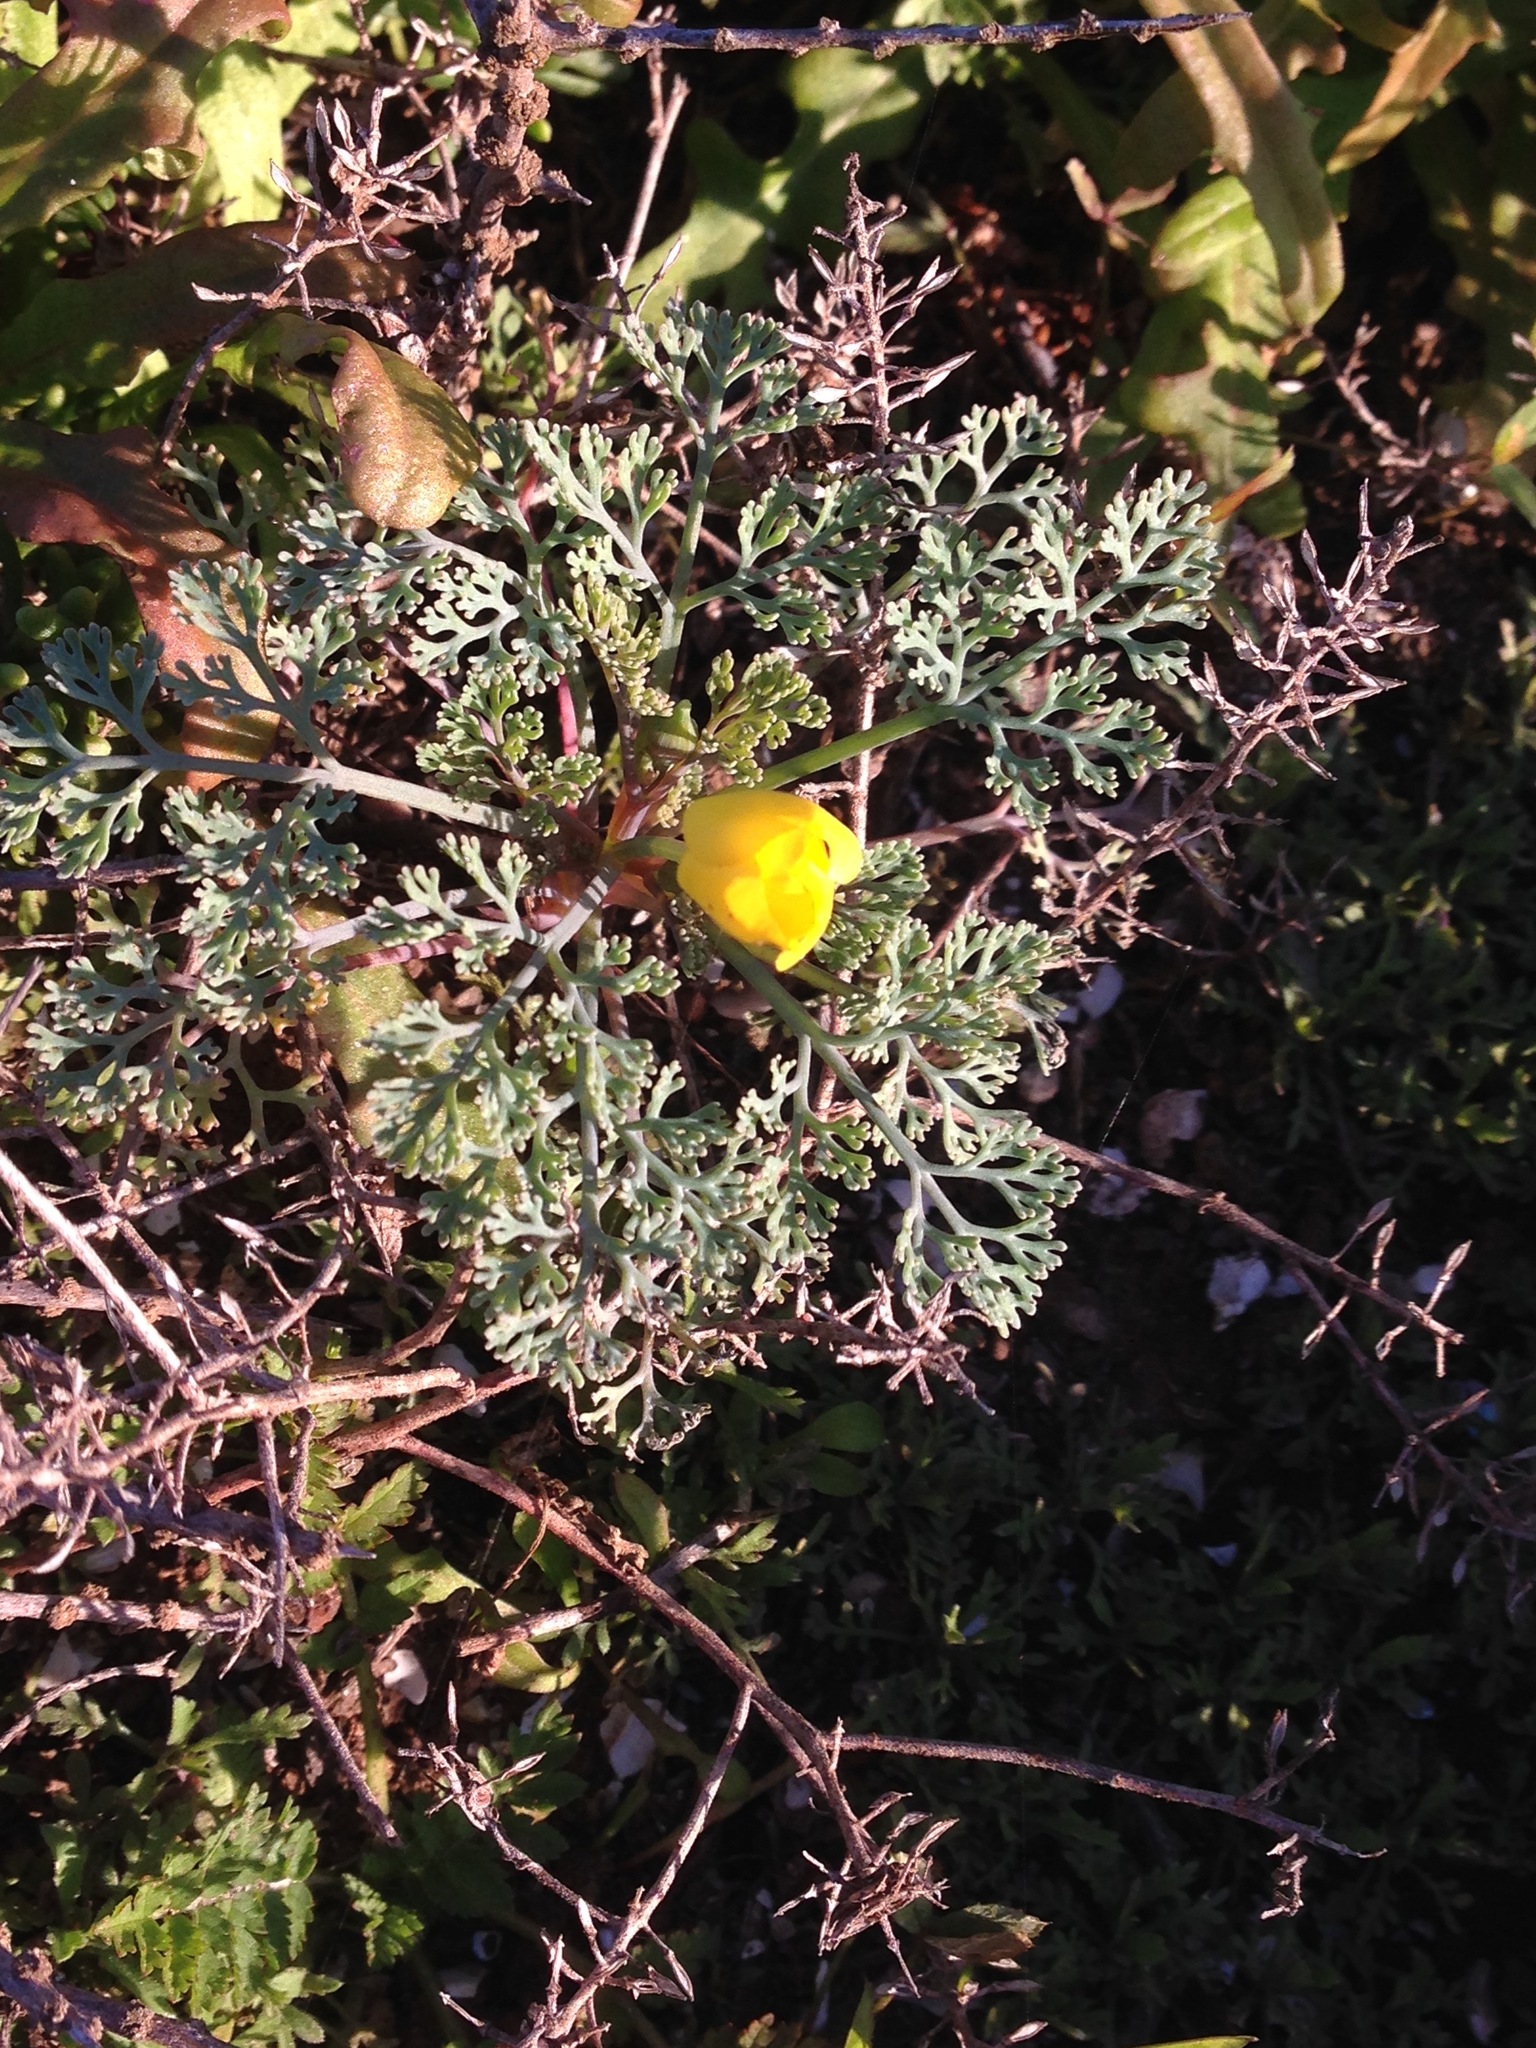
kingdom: Plantae
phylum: Tracheophyta
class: Magnoliopsida
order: Ranunculales
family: Papaveraceae
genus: Eschscholzia
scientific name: Eschscholzia ramosa
